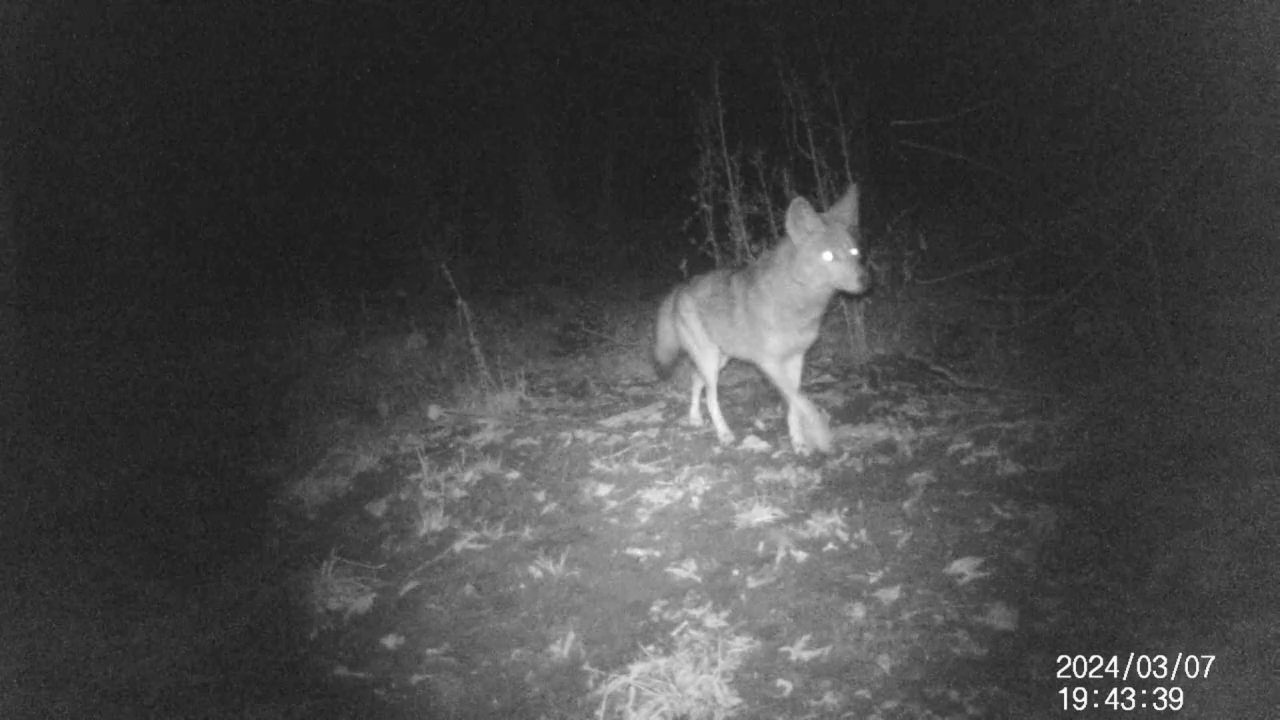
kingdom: Animalia
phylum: Chordata
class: Mammalia
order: Carnivora
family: Canidae
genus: Canis
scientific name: Canis latrans
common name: Coyote
